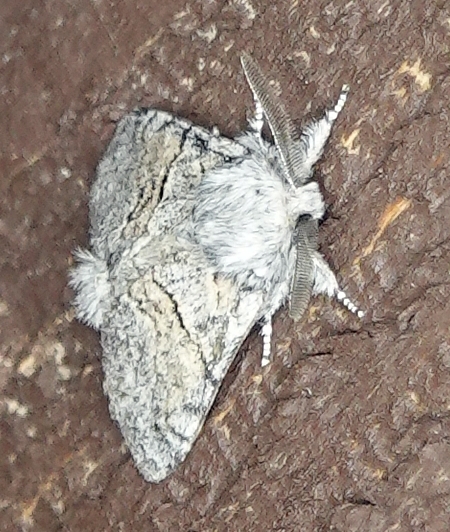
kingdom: Animalia
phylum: Arthropoda
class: Insecta
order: Lepidoptera
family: Notodontidae
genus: Gluphisia
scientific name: Gluphisia septentrionis
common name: Common gluphisia
